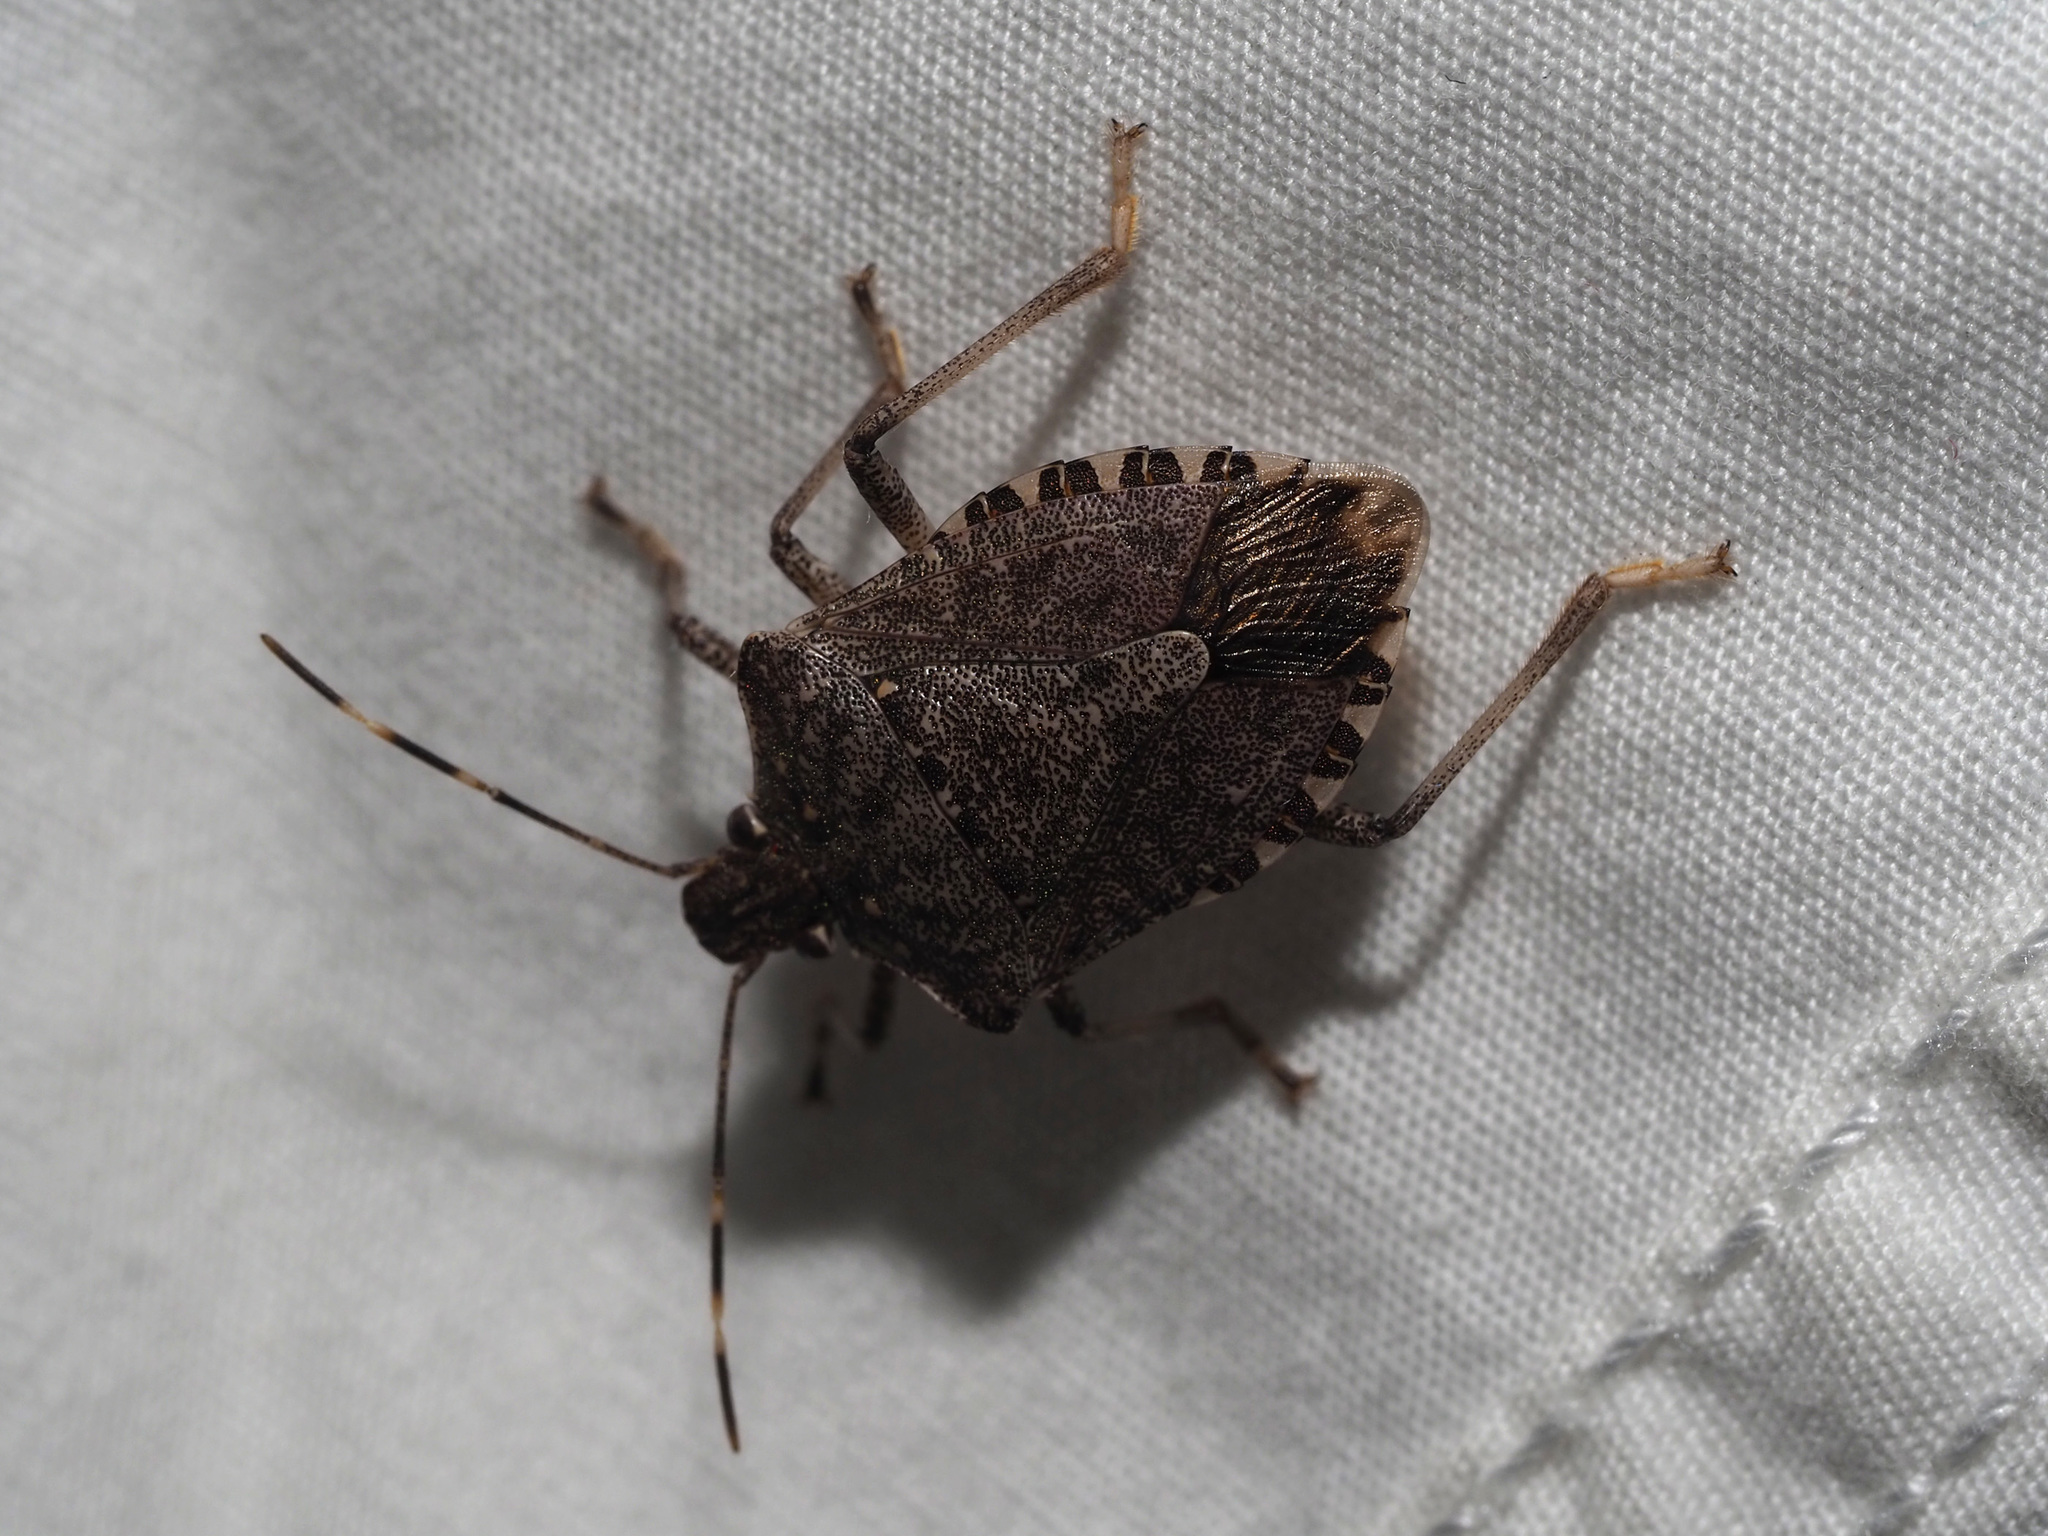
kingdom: Animalia
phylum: Arthropoda
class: Insecta
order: Hemiptera
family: Pentatomidae
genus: Halyomorpha
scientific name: Halyomorpha halys
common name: Brown marmorated stink bug
